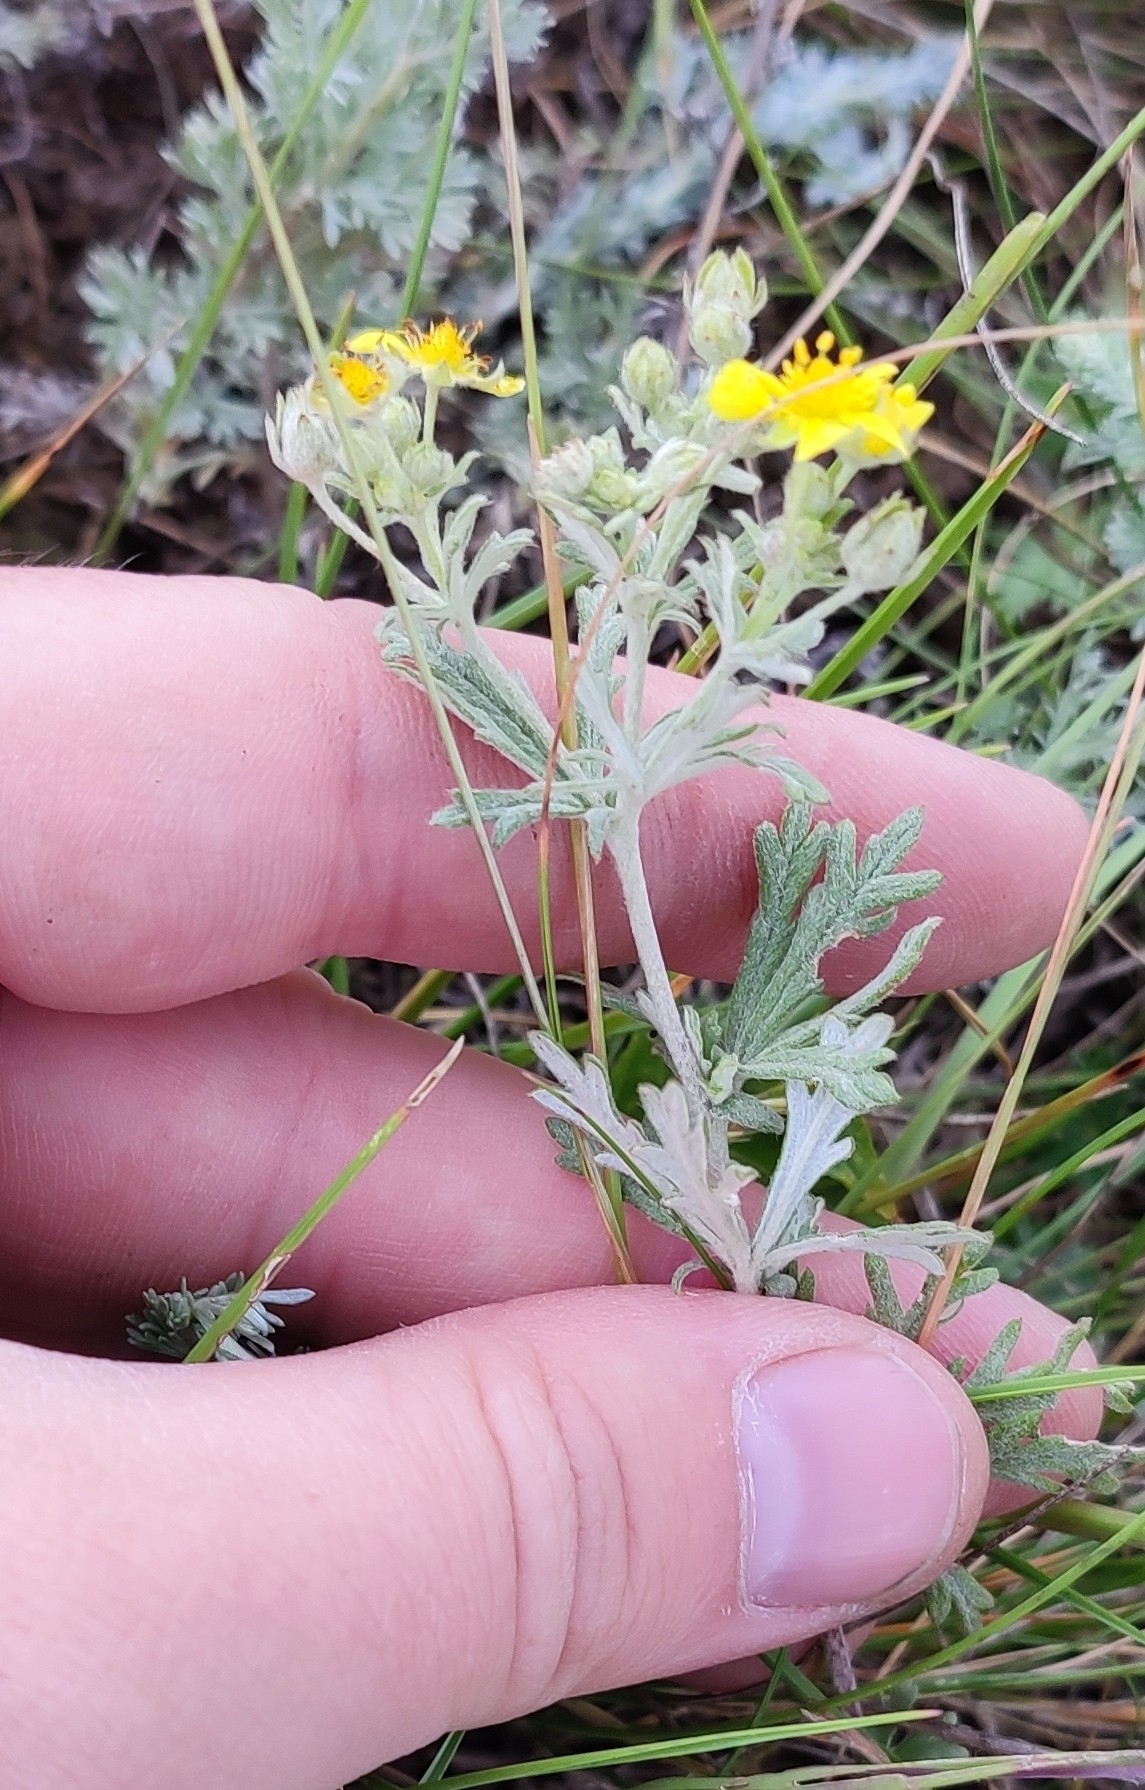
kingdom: Plantae
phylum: Tracheophyta
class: Magnoliopsida
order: Rosales
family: Rosaceae
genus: Potentilla
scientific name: Potentilla argentea
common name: Hoary cinquefoil
